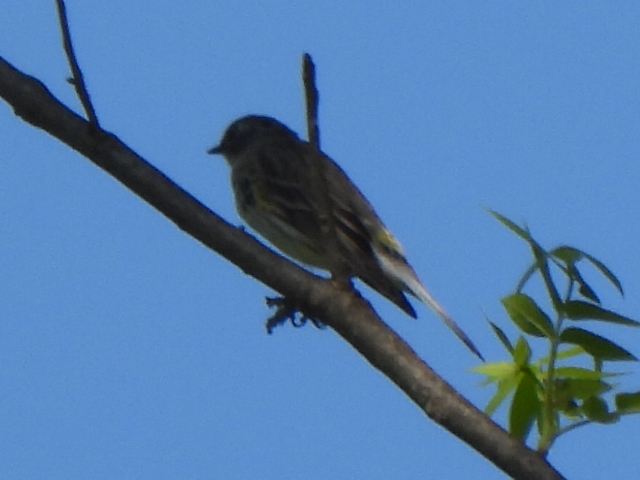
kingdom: Animalia
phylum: Chordata
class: Aves
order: Passeriformes
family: Parulidae
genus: Setophaga
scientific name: Setophaga coronata
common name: Myrtle warbler
